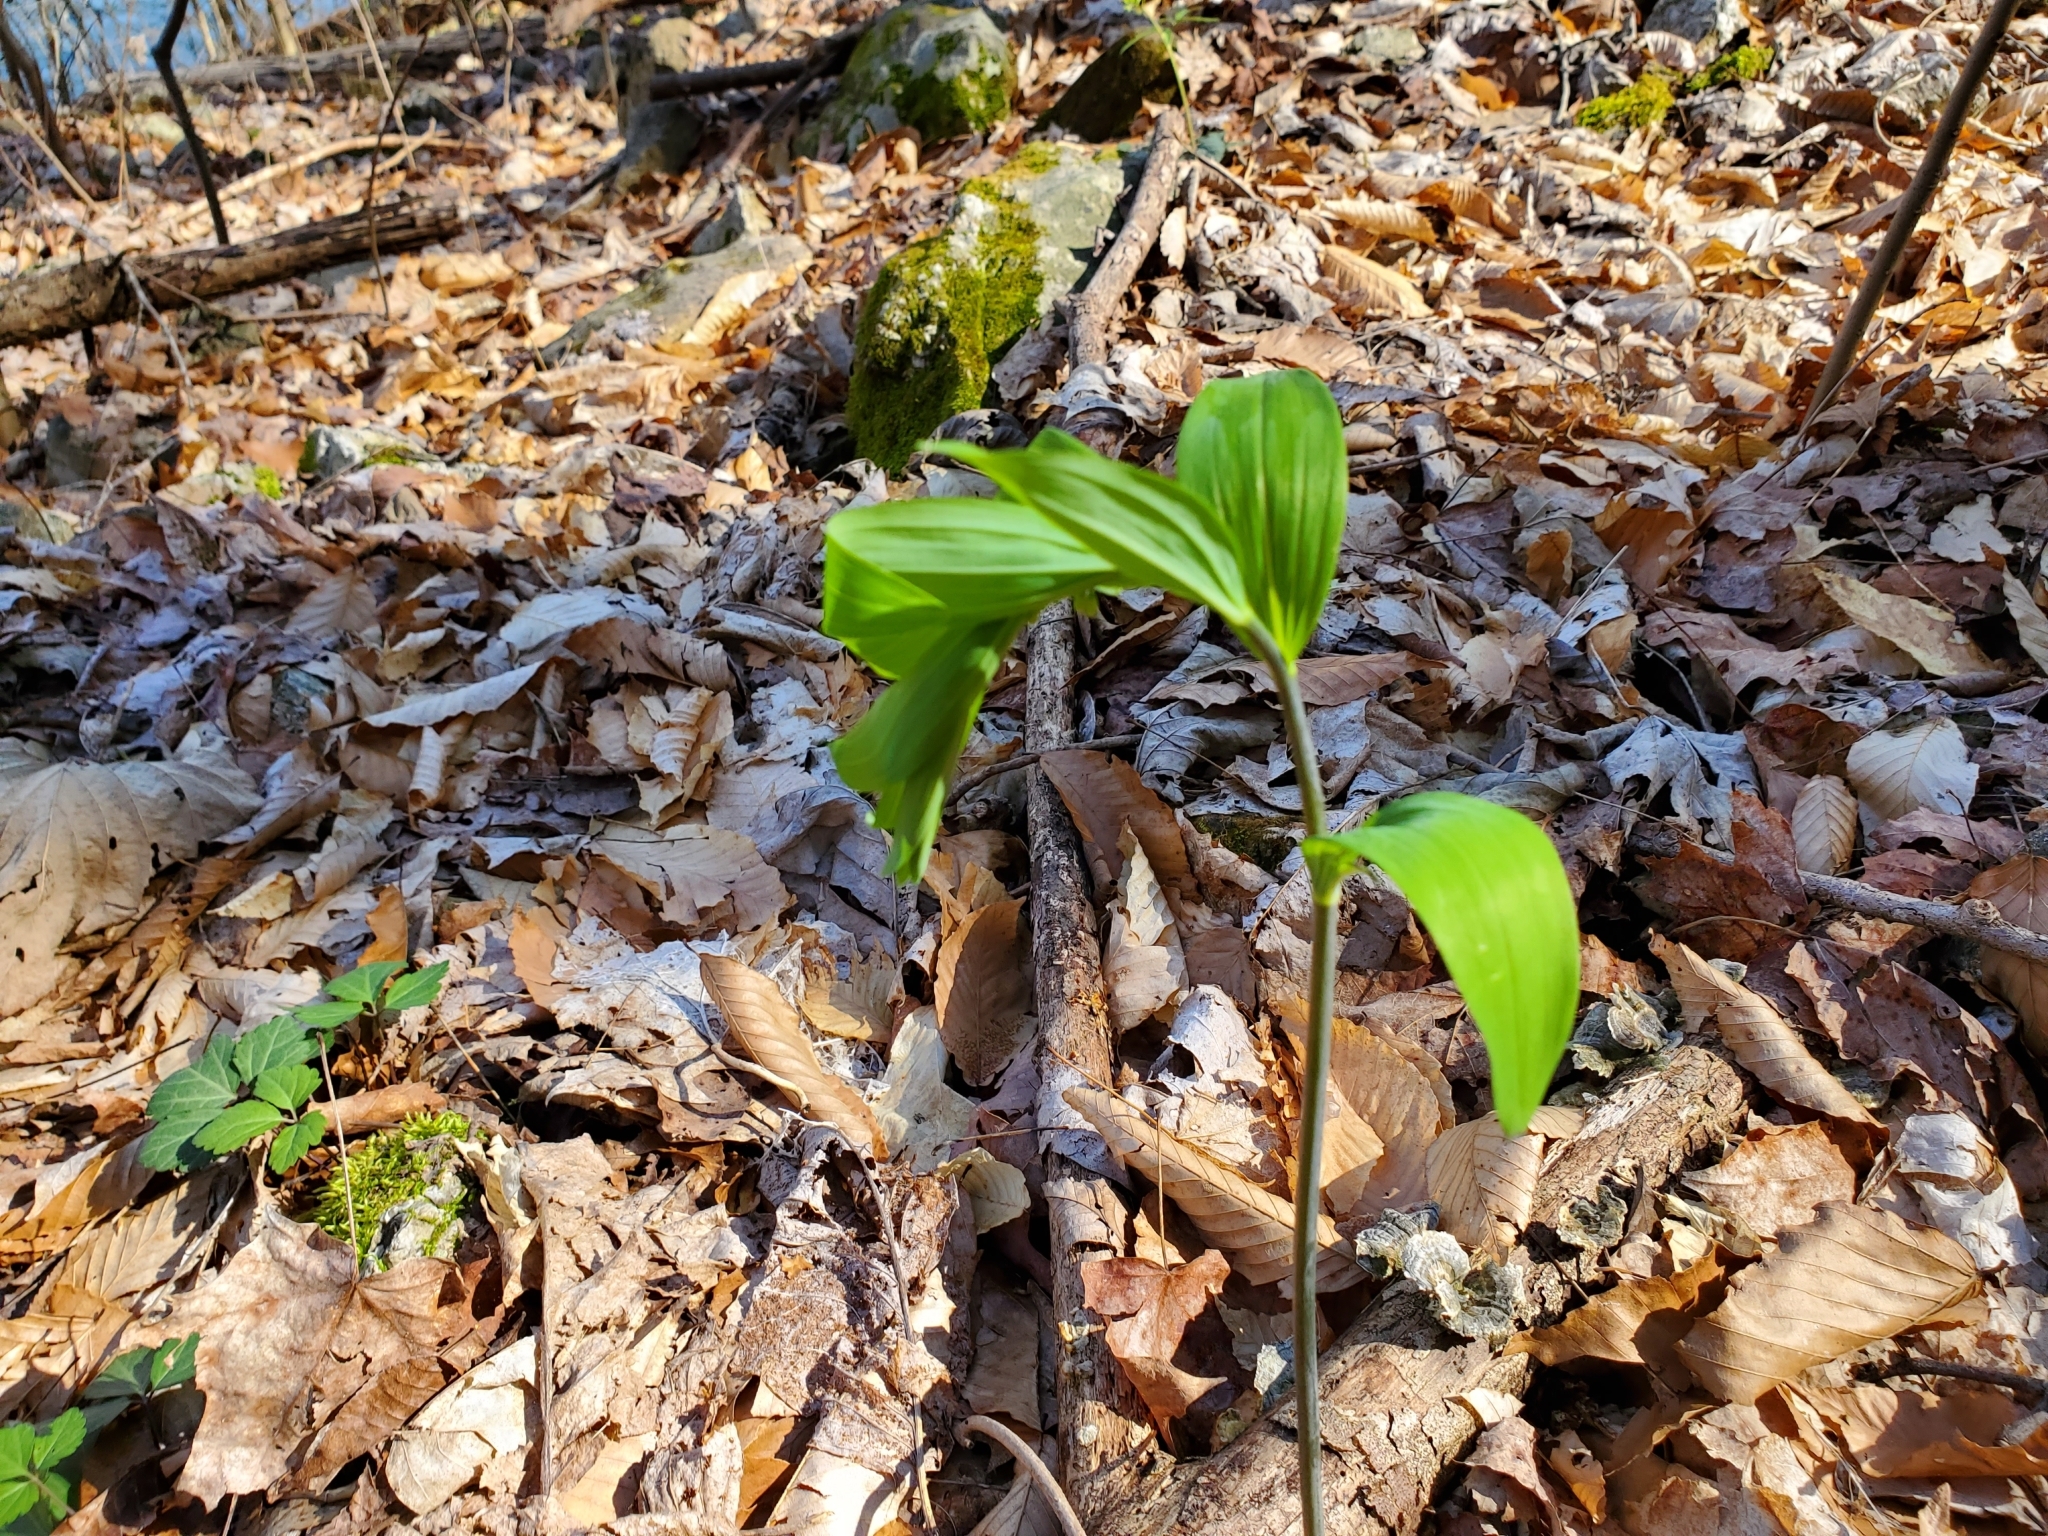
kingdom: Plantae
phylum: Tracheophyta
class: Liliopsida
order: Asparagales
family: Asparagaceae
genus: Polygonatum
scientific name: Polygonatum biflorum
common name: American solomon's-seal
